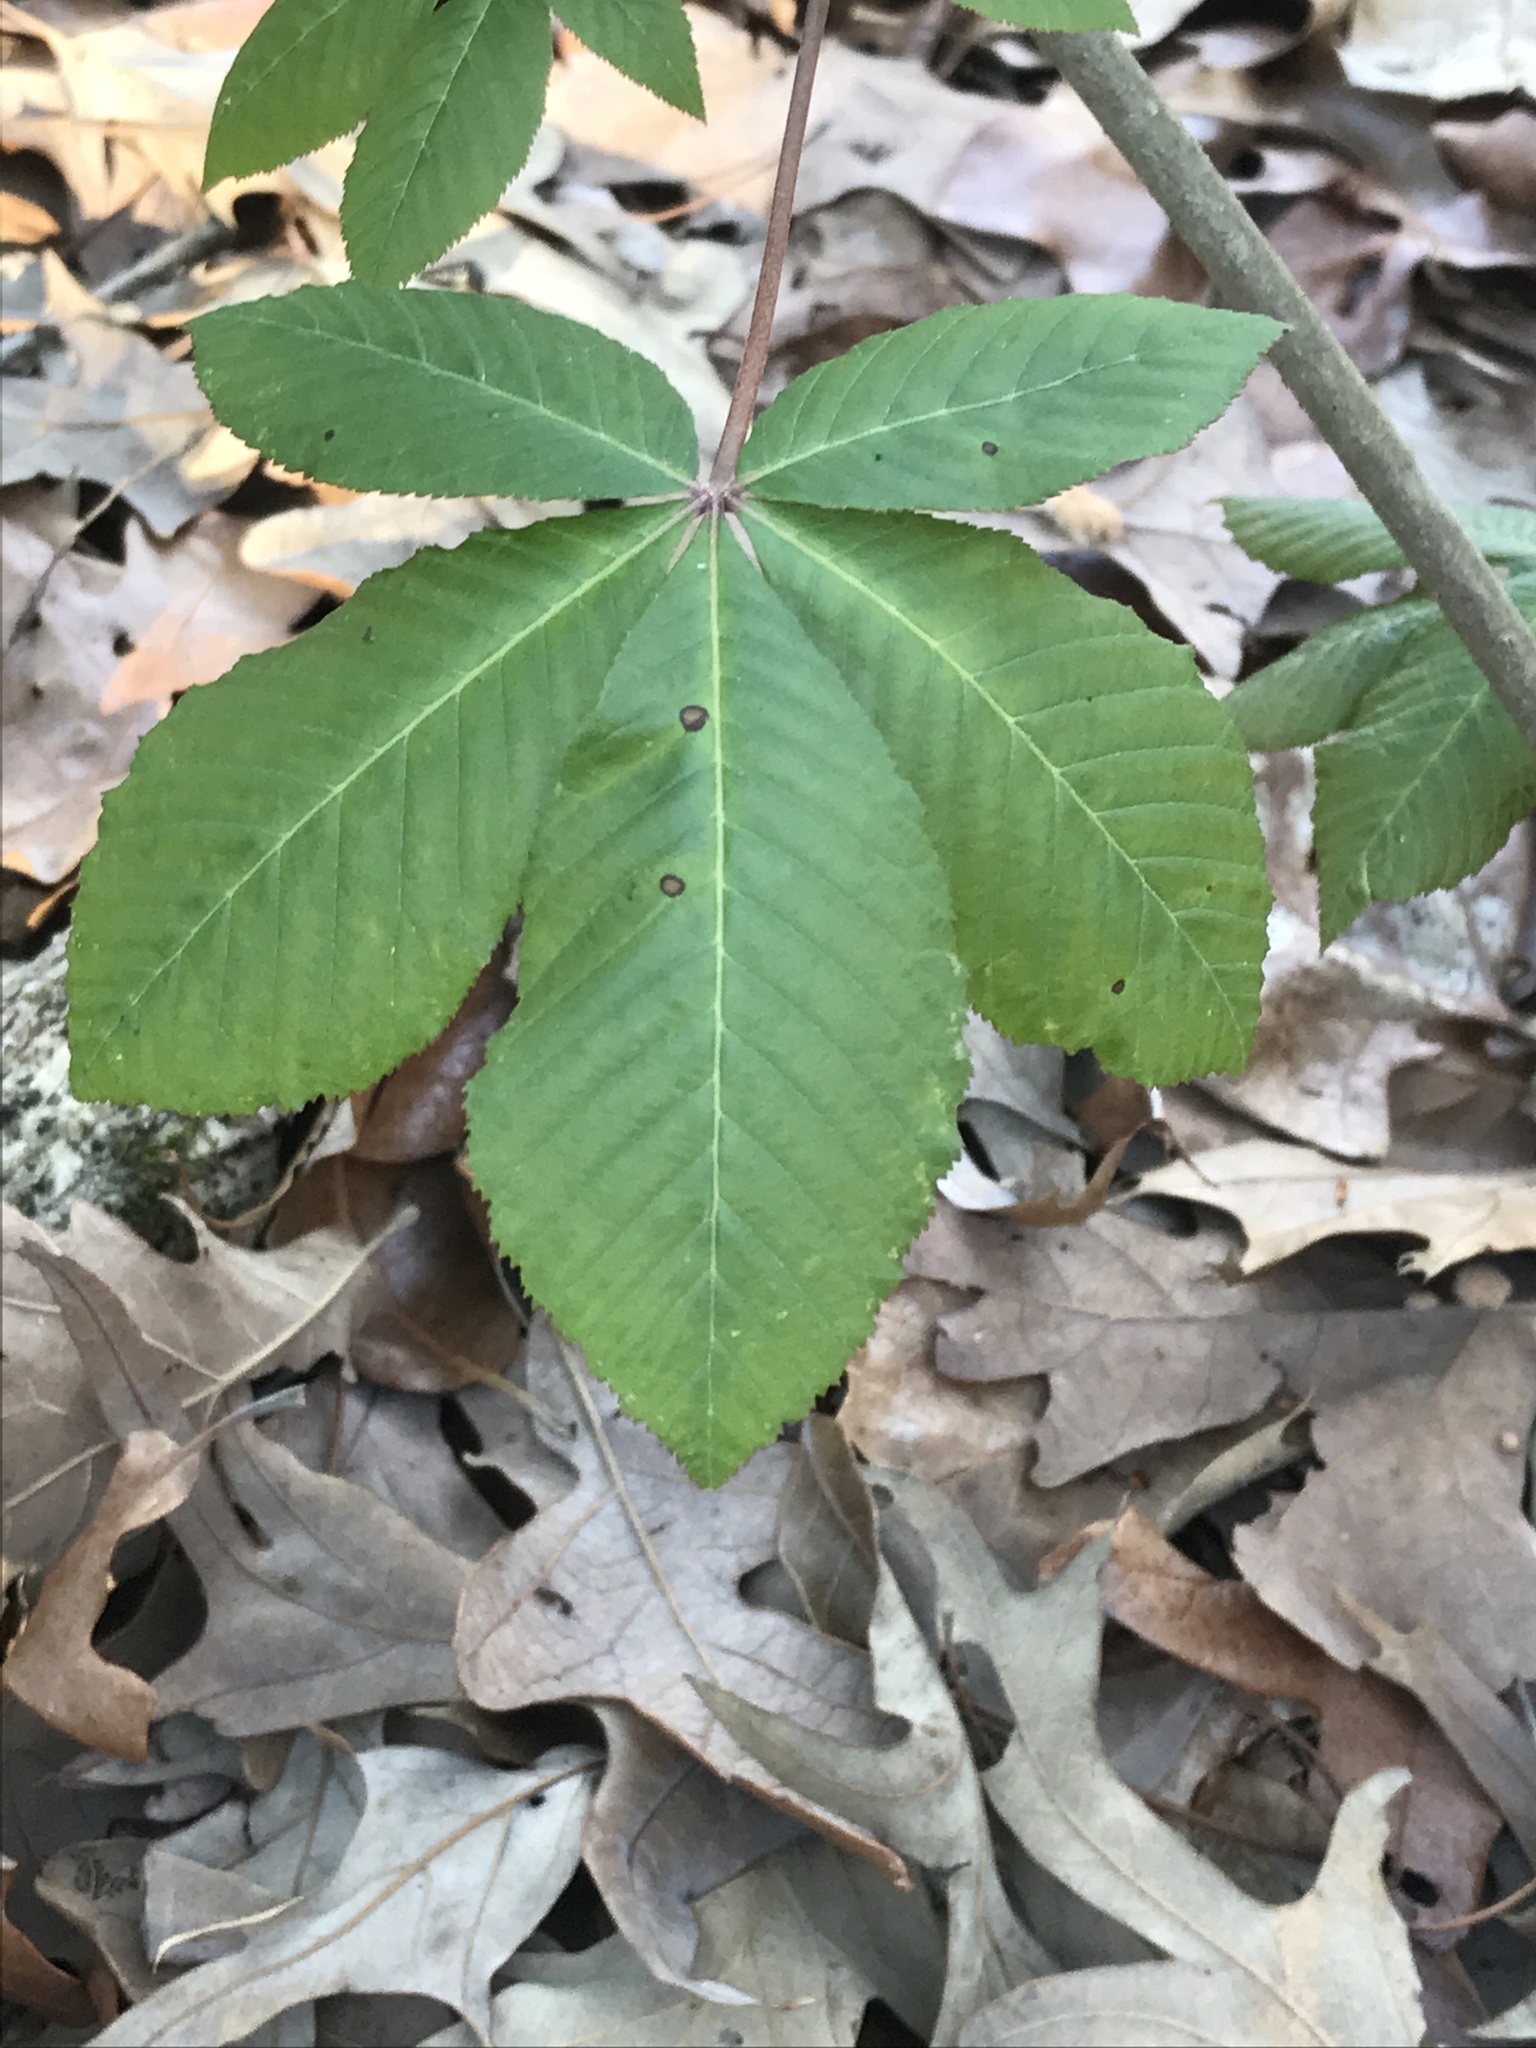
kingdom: Plantae
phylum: Tracheophyta
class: Magnoliopsida
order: Sapindales
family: Sapindaceae
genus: Aesculus
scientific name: Aesculus pavia
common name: Red buckeye
